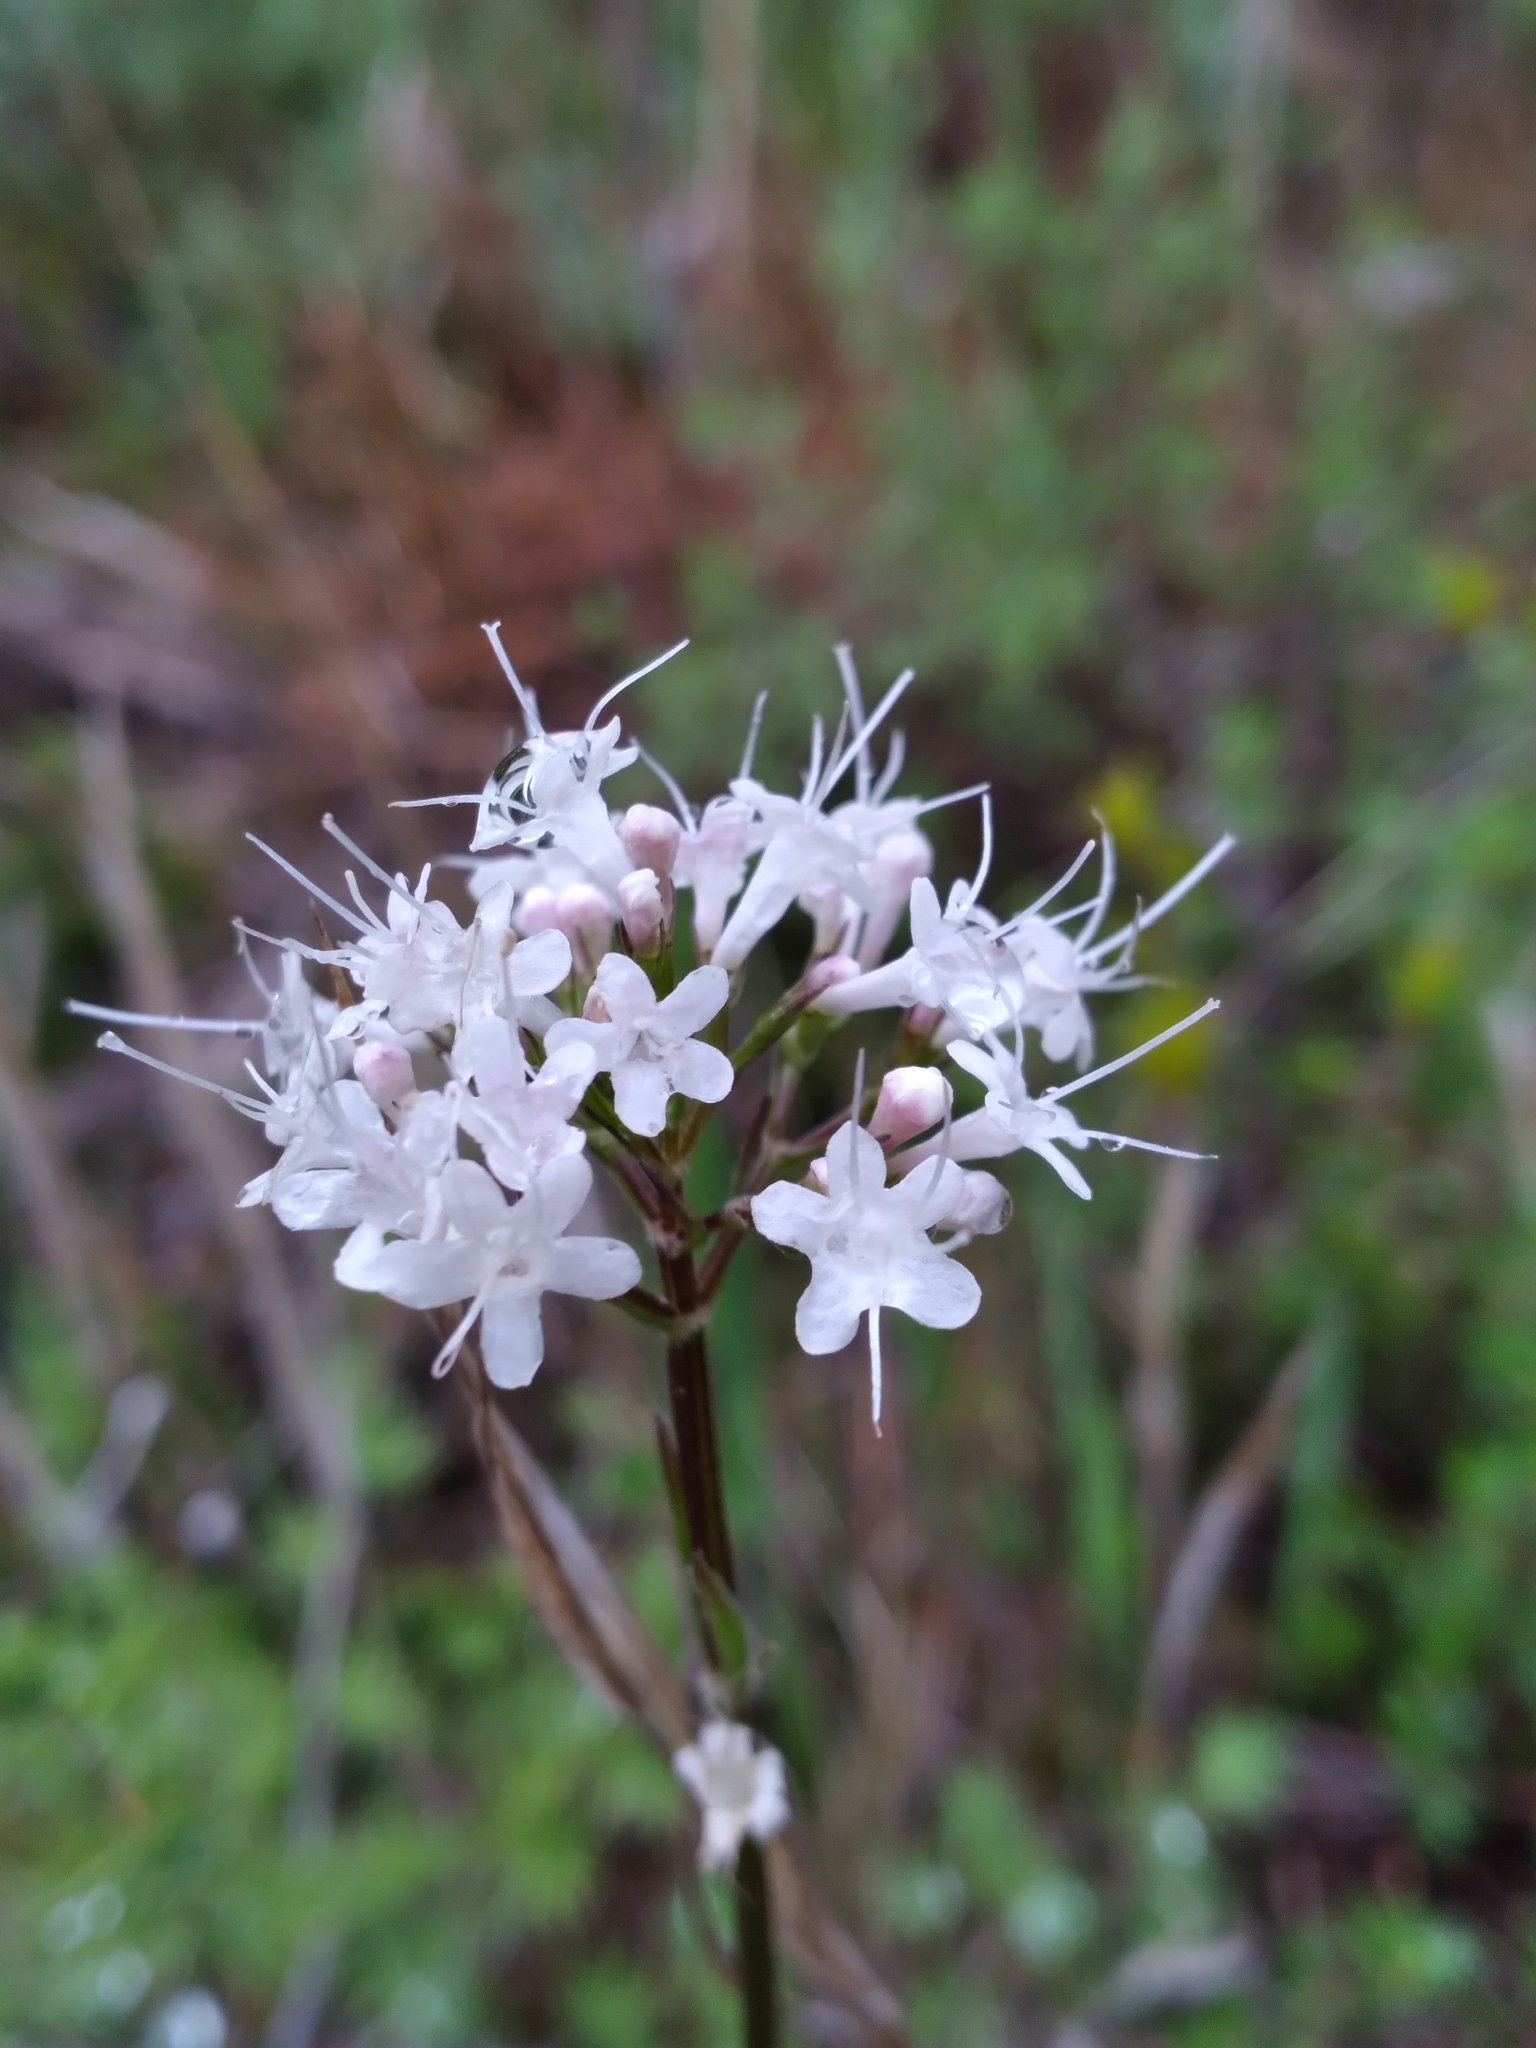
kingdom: Plantae
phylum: Tracheophyta
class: Magnoliopsida
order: Dipsacales
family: Caprifoliaceae
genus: Valeriana
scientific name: Valeriana uliginosa
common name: Marsh valerian
